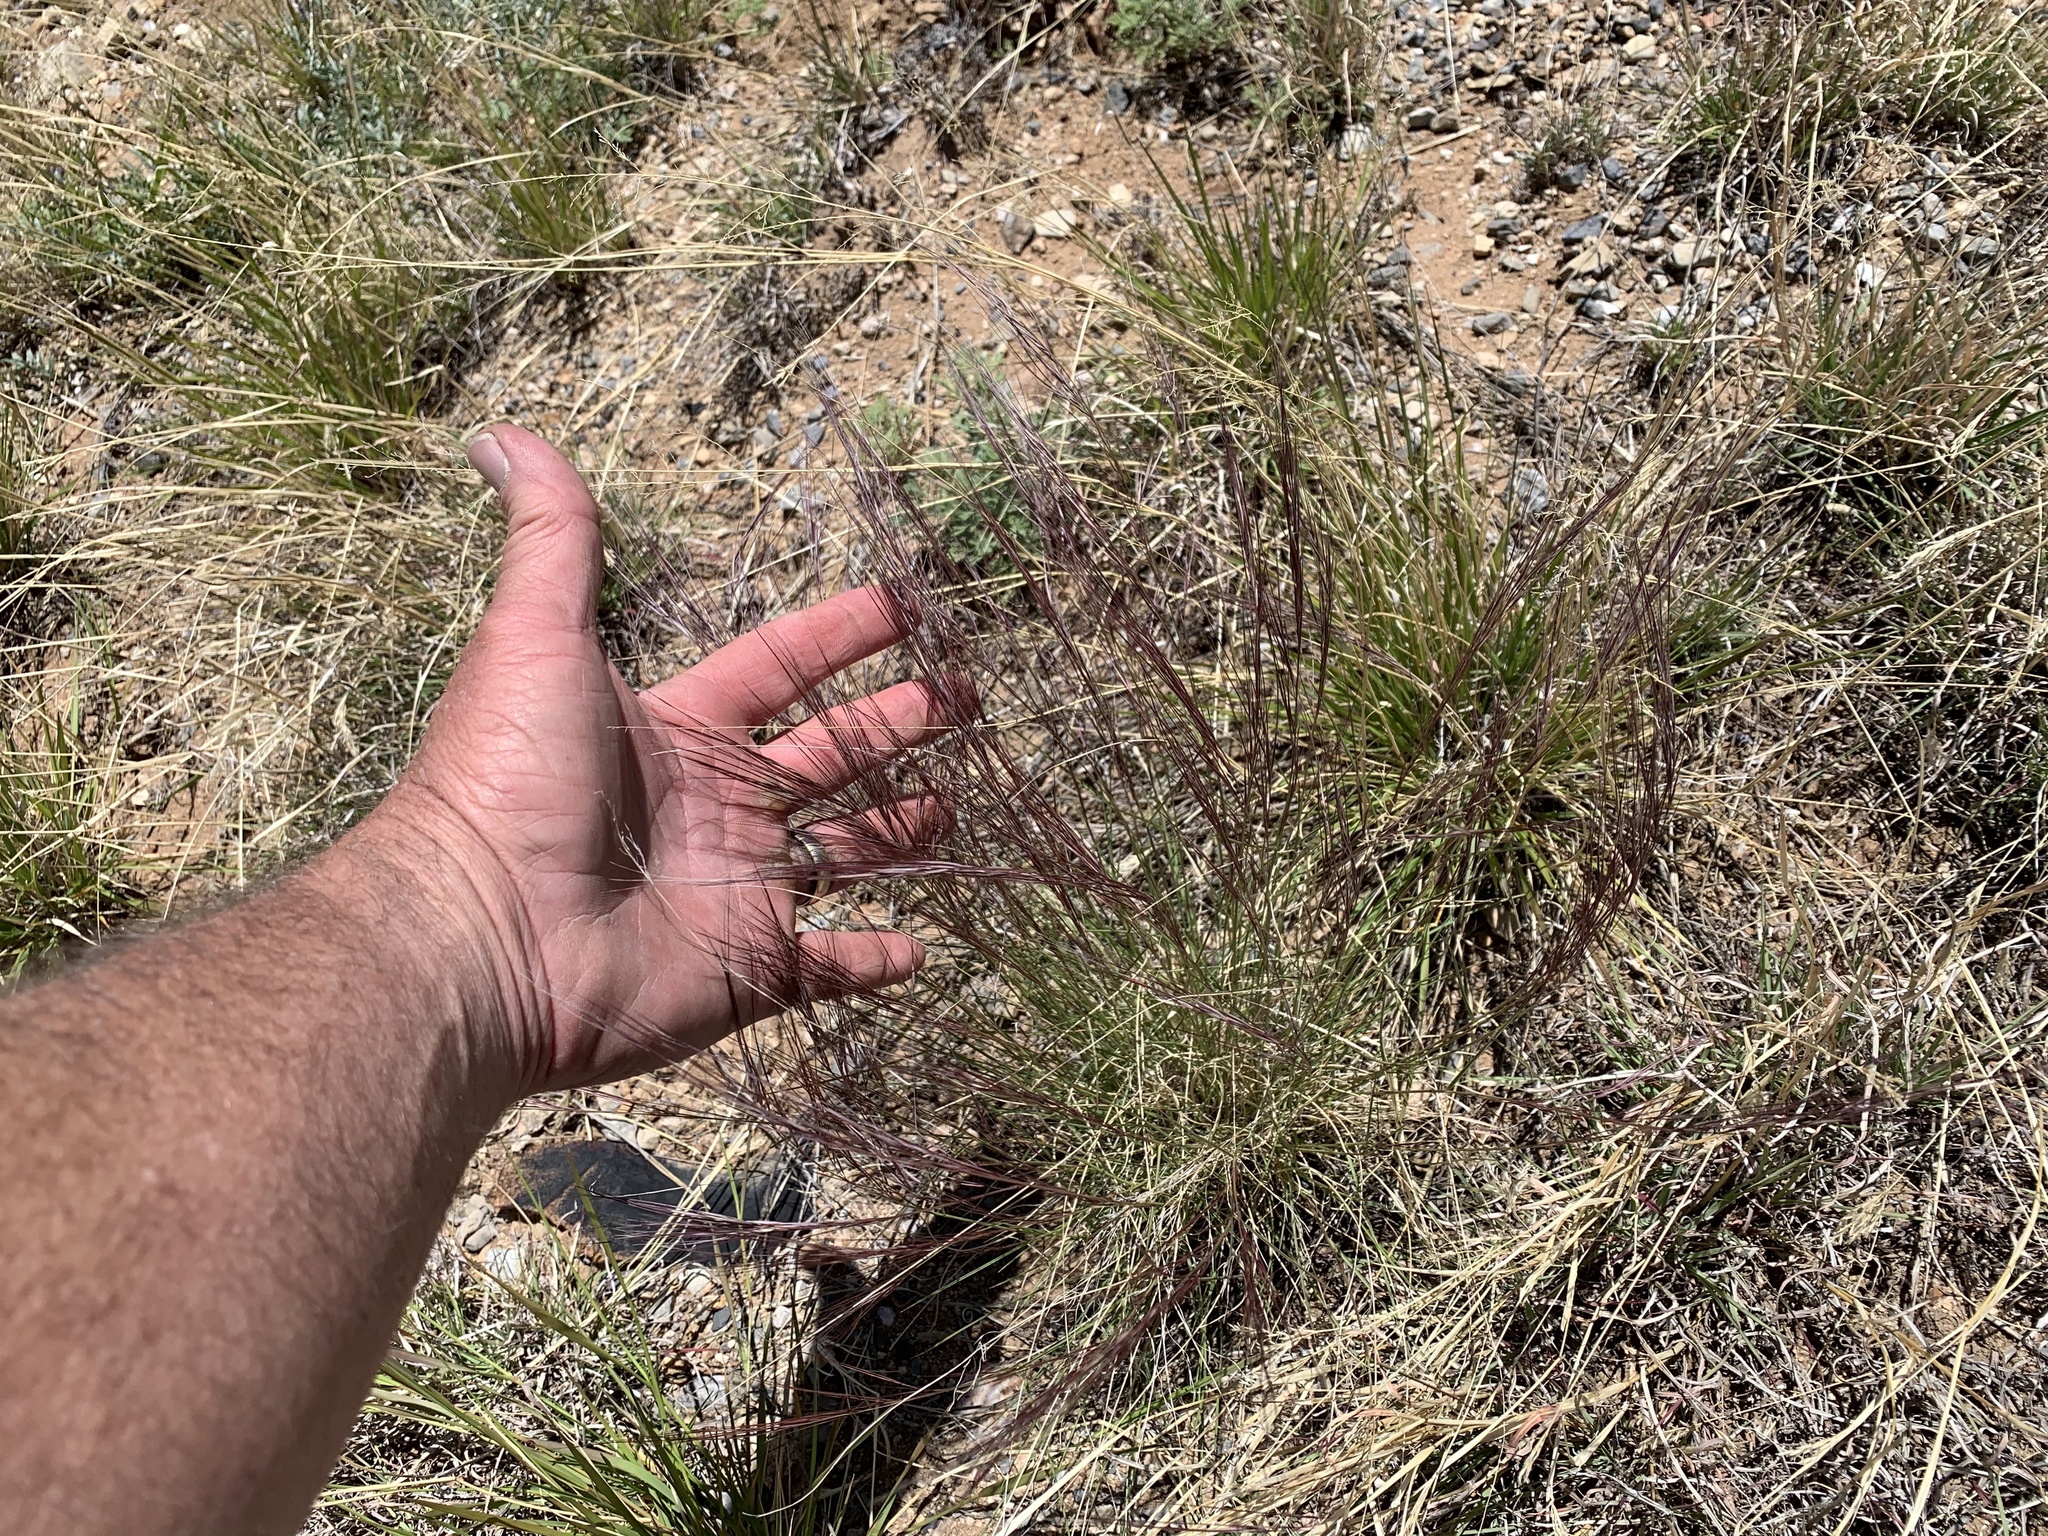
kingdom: Plantae
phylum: Tracheophyta
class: Liliopsida
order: Poales
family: Poaceae
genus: Aristida
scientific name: Aristida purpurea
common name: Purple threeawn
